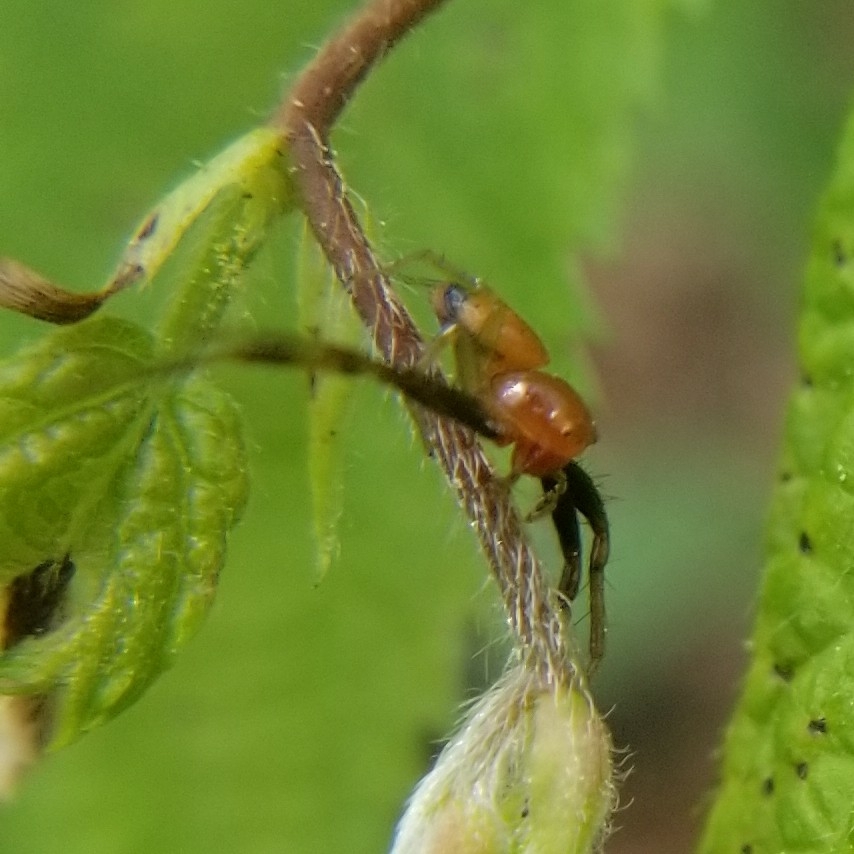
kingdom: Animalia
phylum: Arthropoda
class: Arachnida
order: Araneae
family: Thomisidae
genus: Synema
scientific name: Synema parvulum
